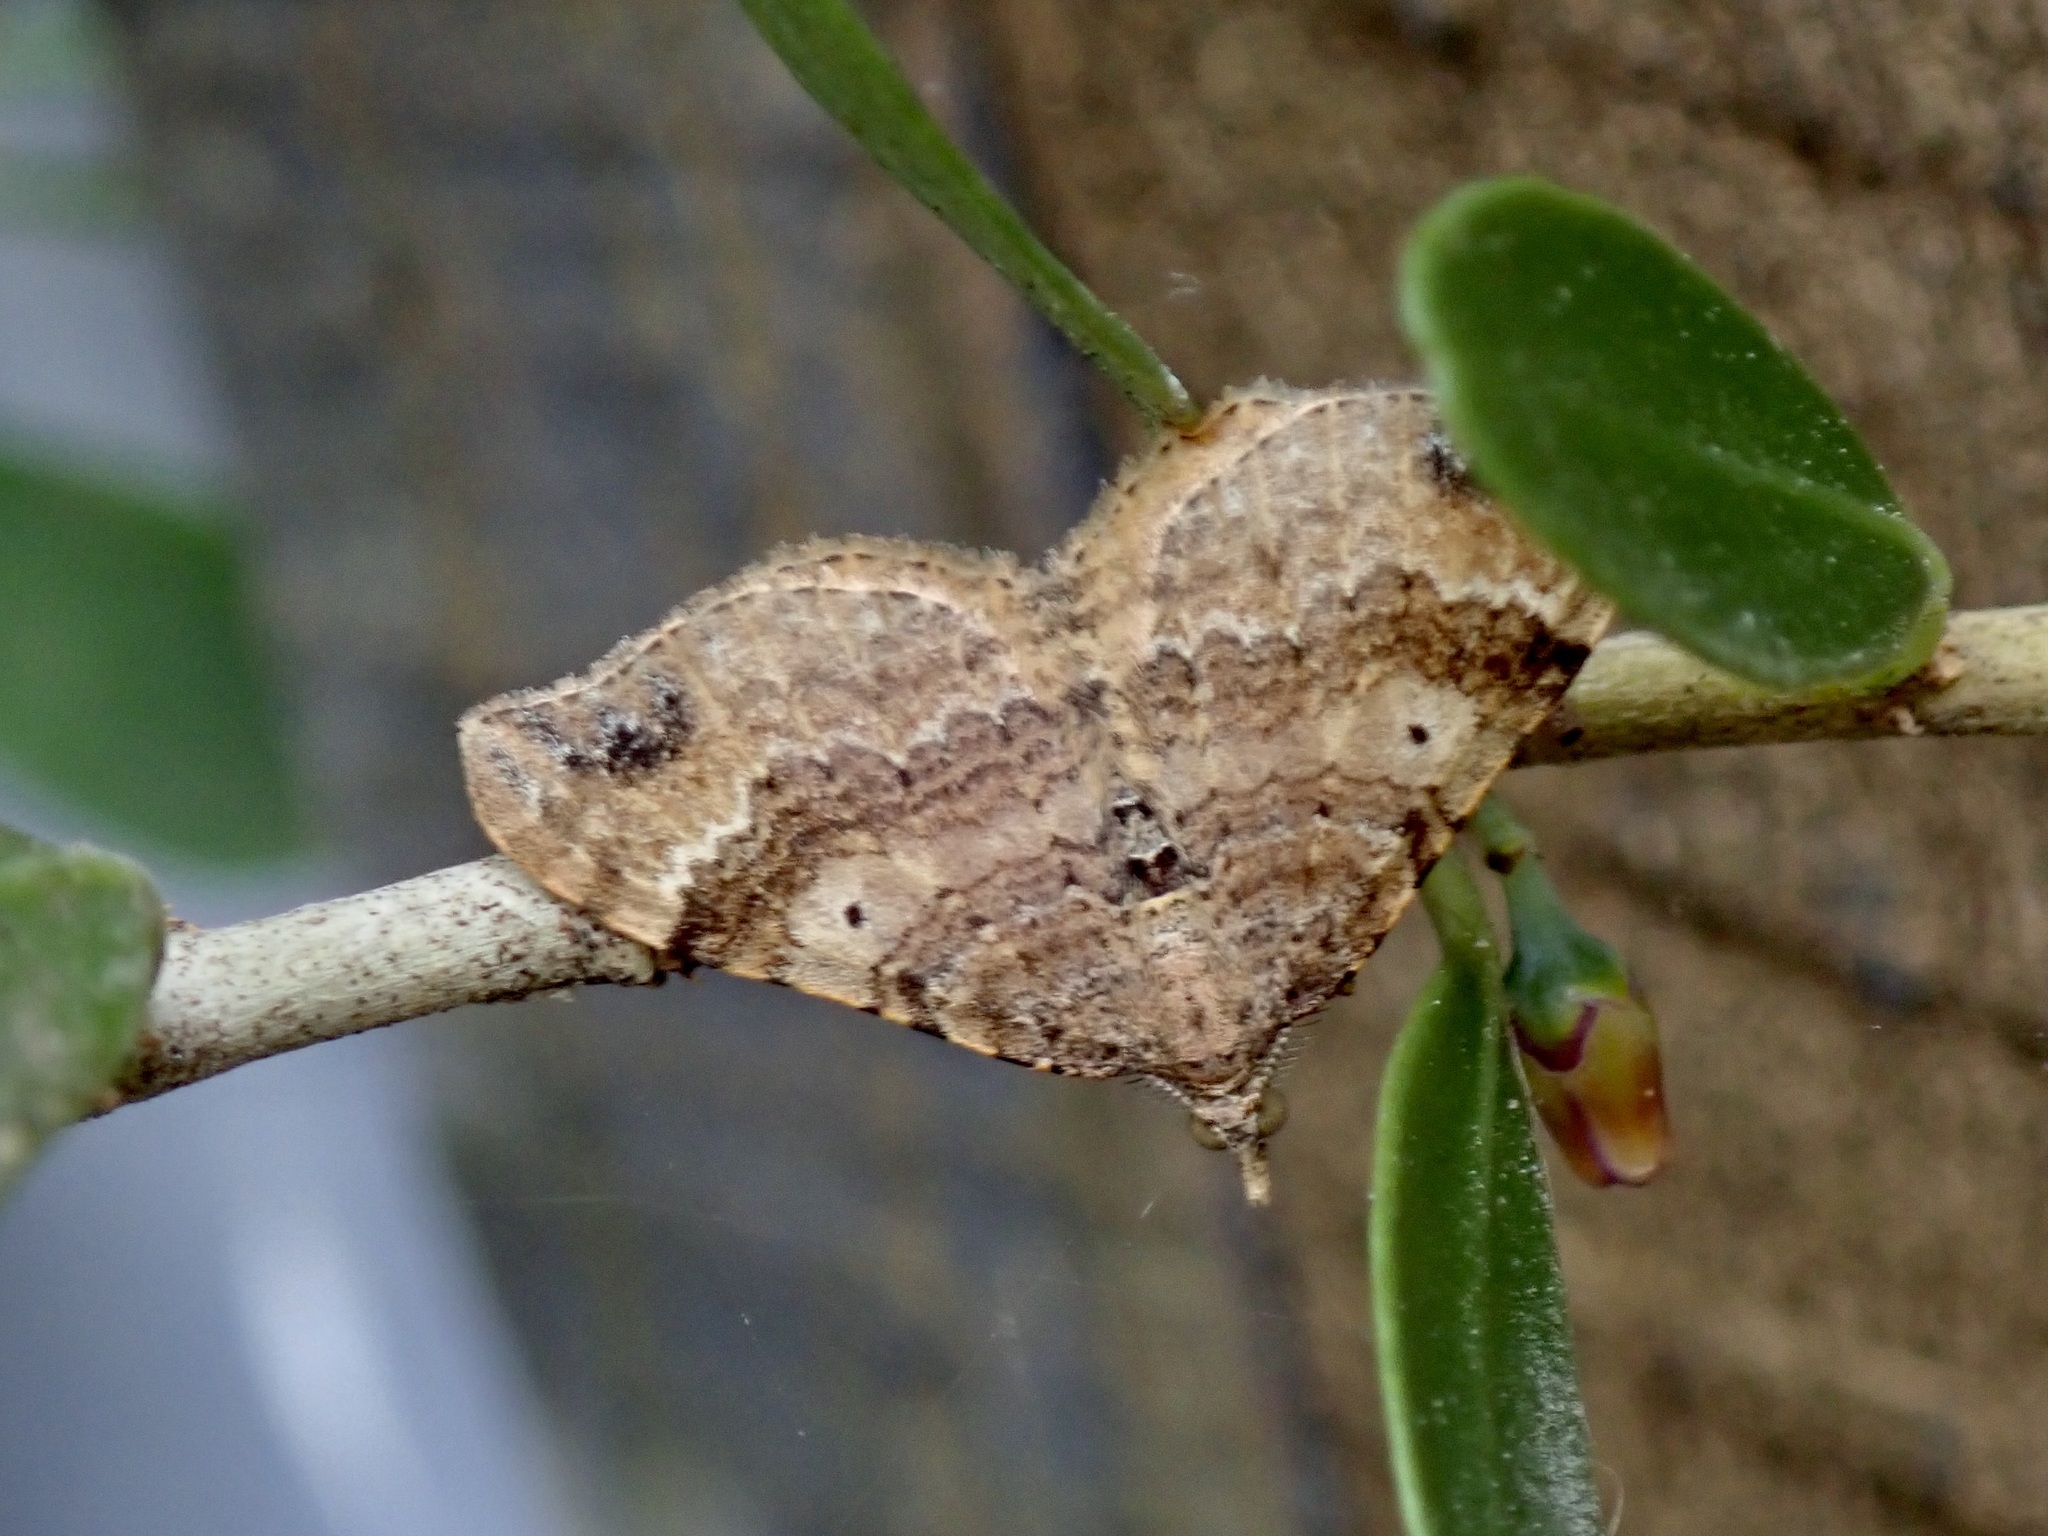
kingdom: Animalia
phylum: Arthropoda
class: Insecta
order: Lepidoptera
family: Geometridae
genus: Homodotis
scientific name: Homodotis megaspilata
